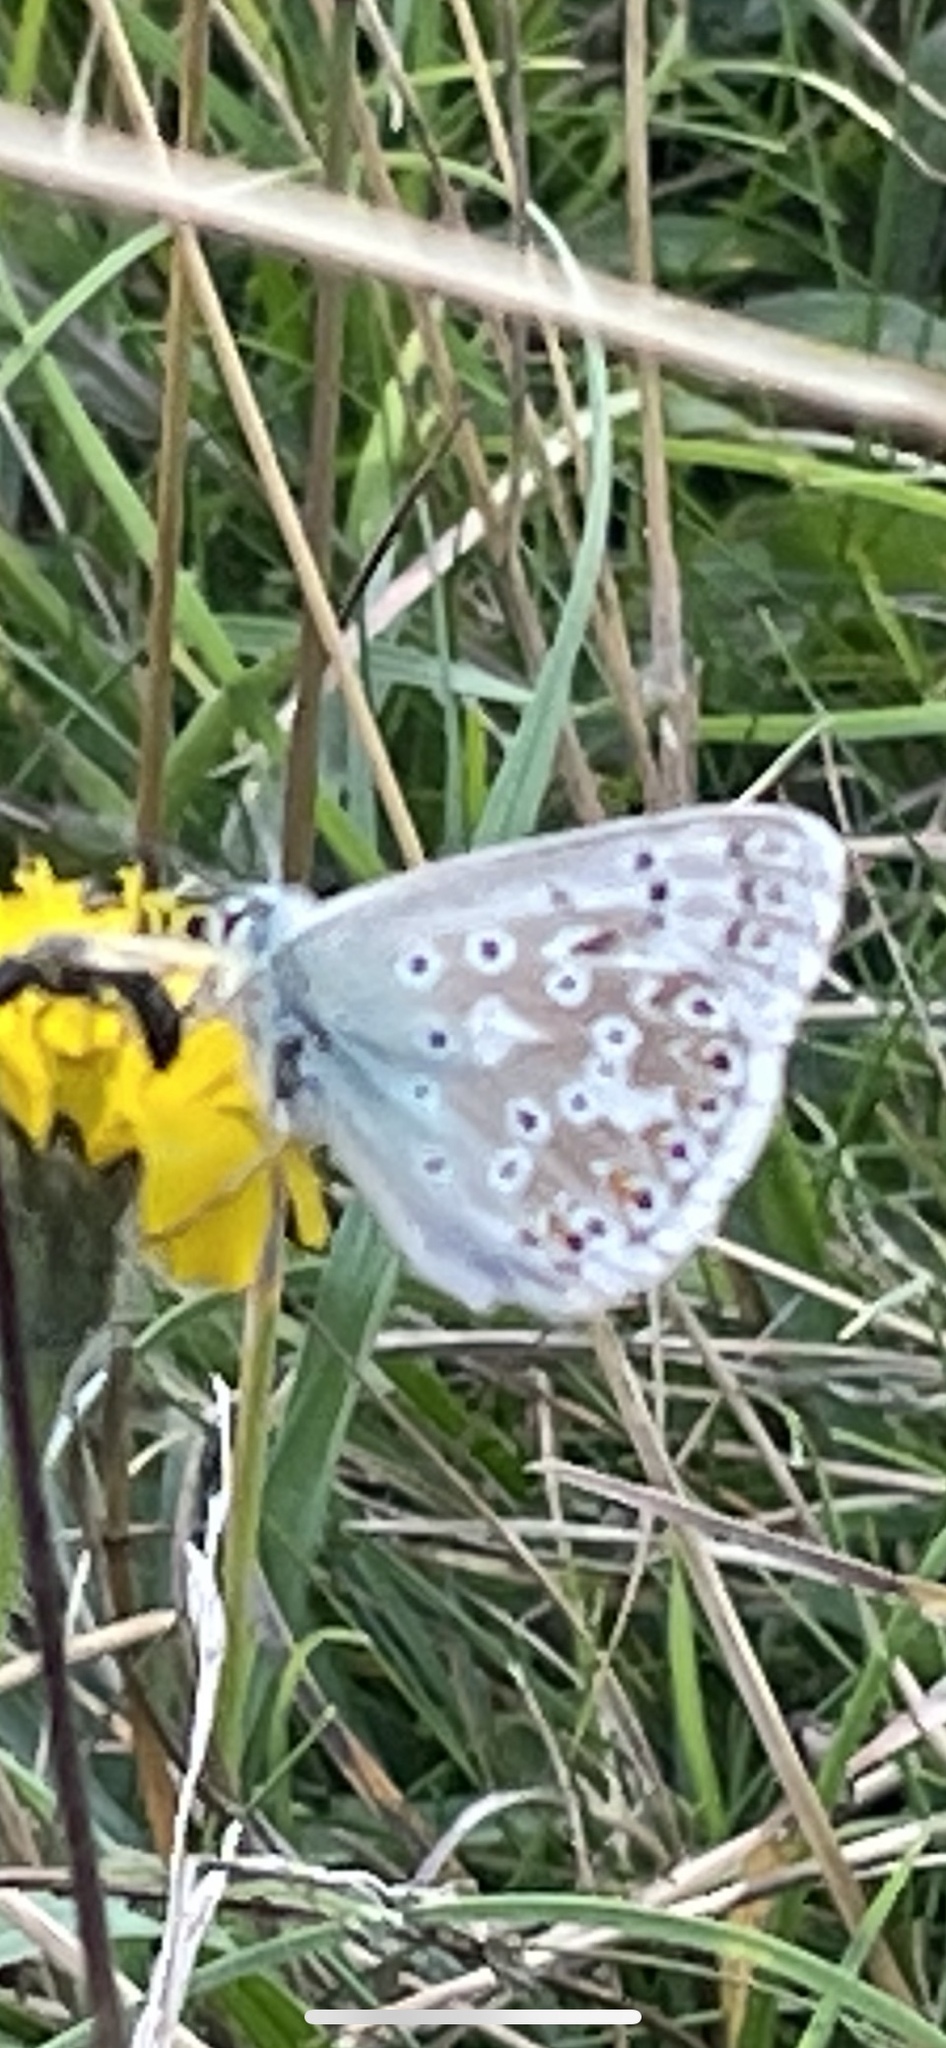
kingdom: Animalia
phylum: Arthropoda
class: Insecta
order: Lepidoptera
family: Lycaenidae
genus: Lysandra
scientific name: Lysandra coridon
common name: Chalkhill blue
